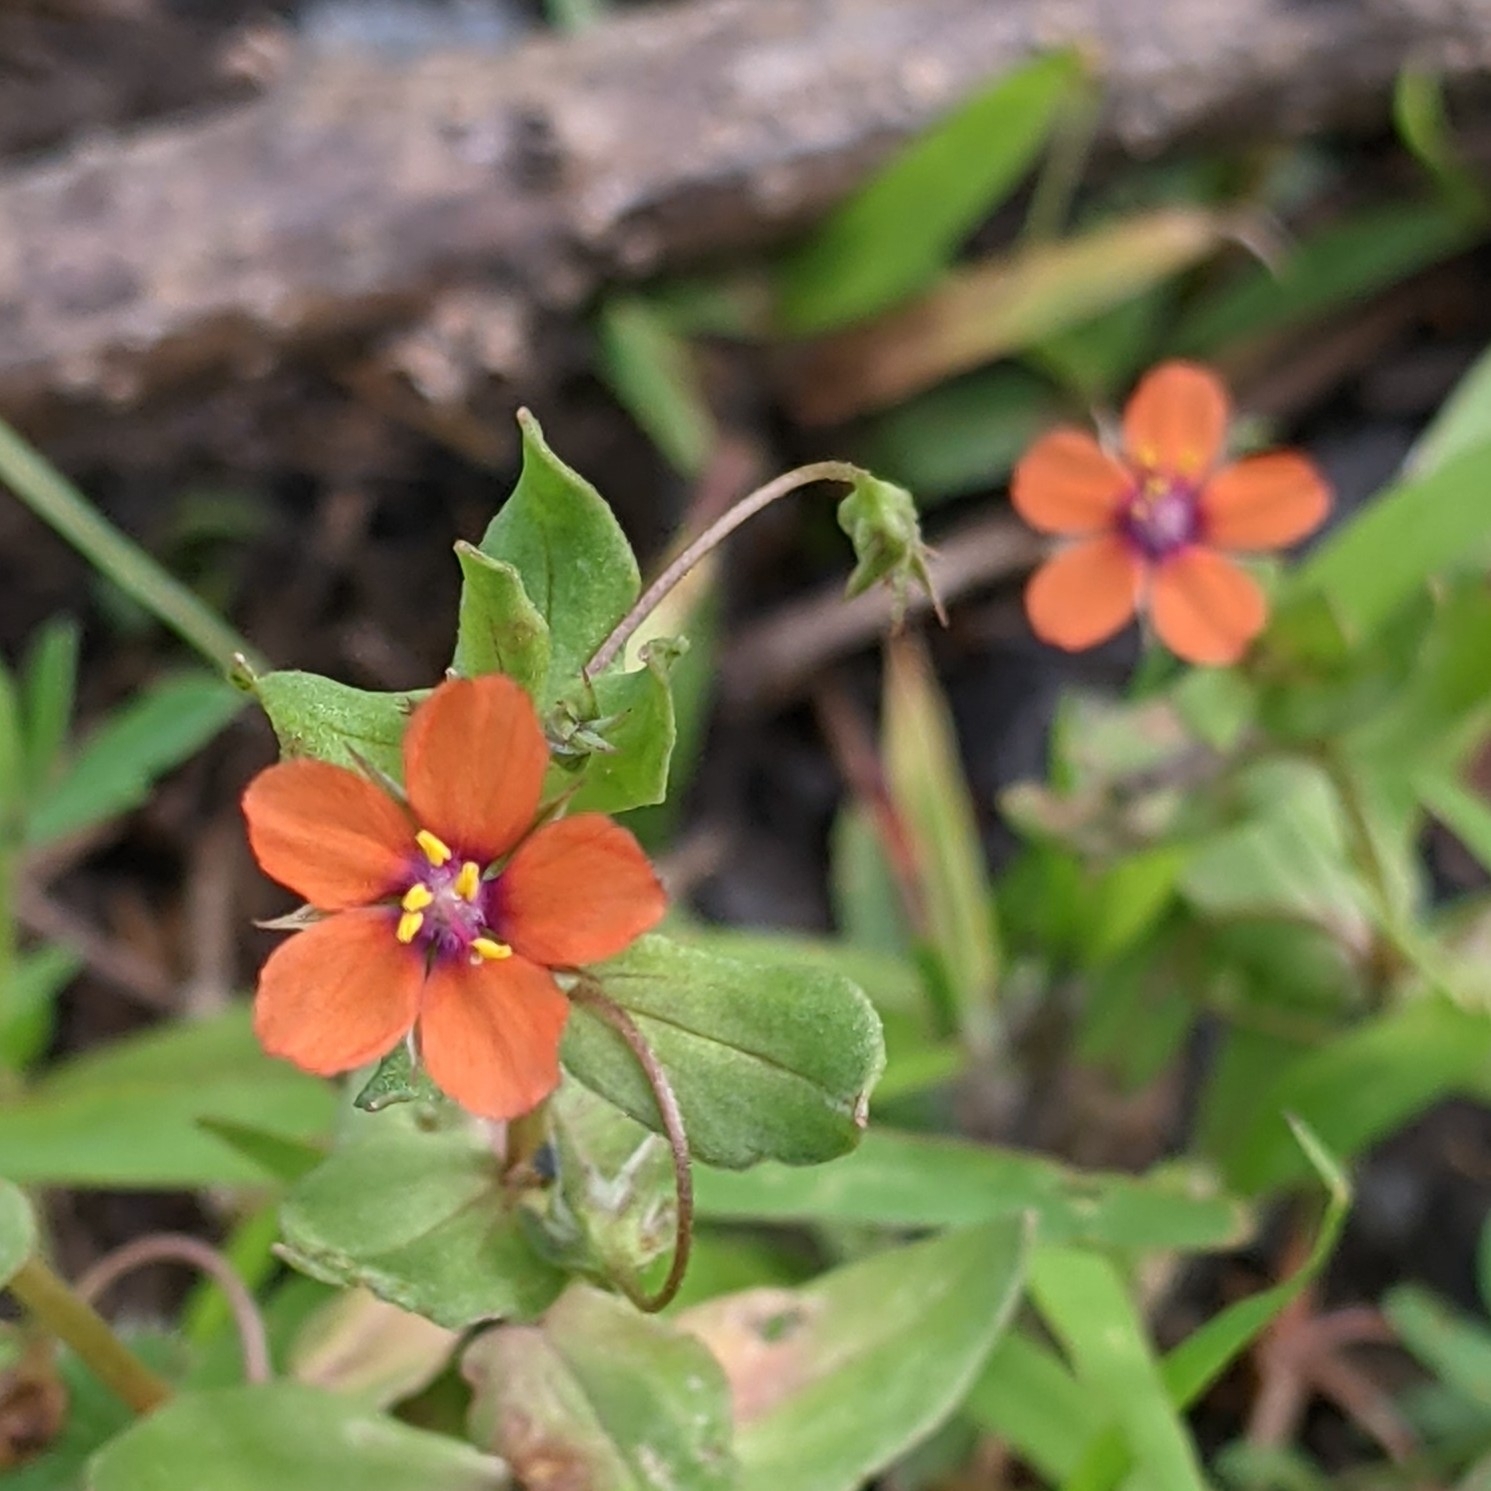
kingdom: Plantae
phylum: Tracheophyta
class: Magnoliopsida
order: Ericales
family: Primulaceae
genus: Lysimachia
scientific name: Lysimachia arvensis
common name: Scarlet pimpernel
